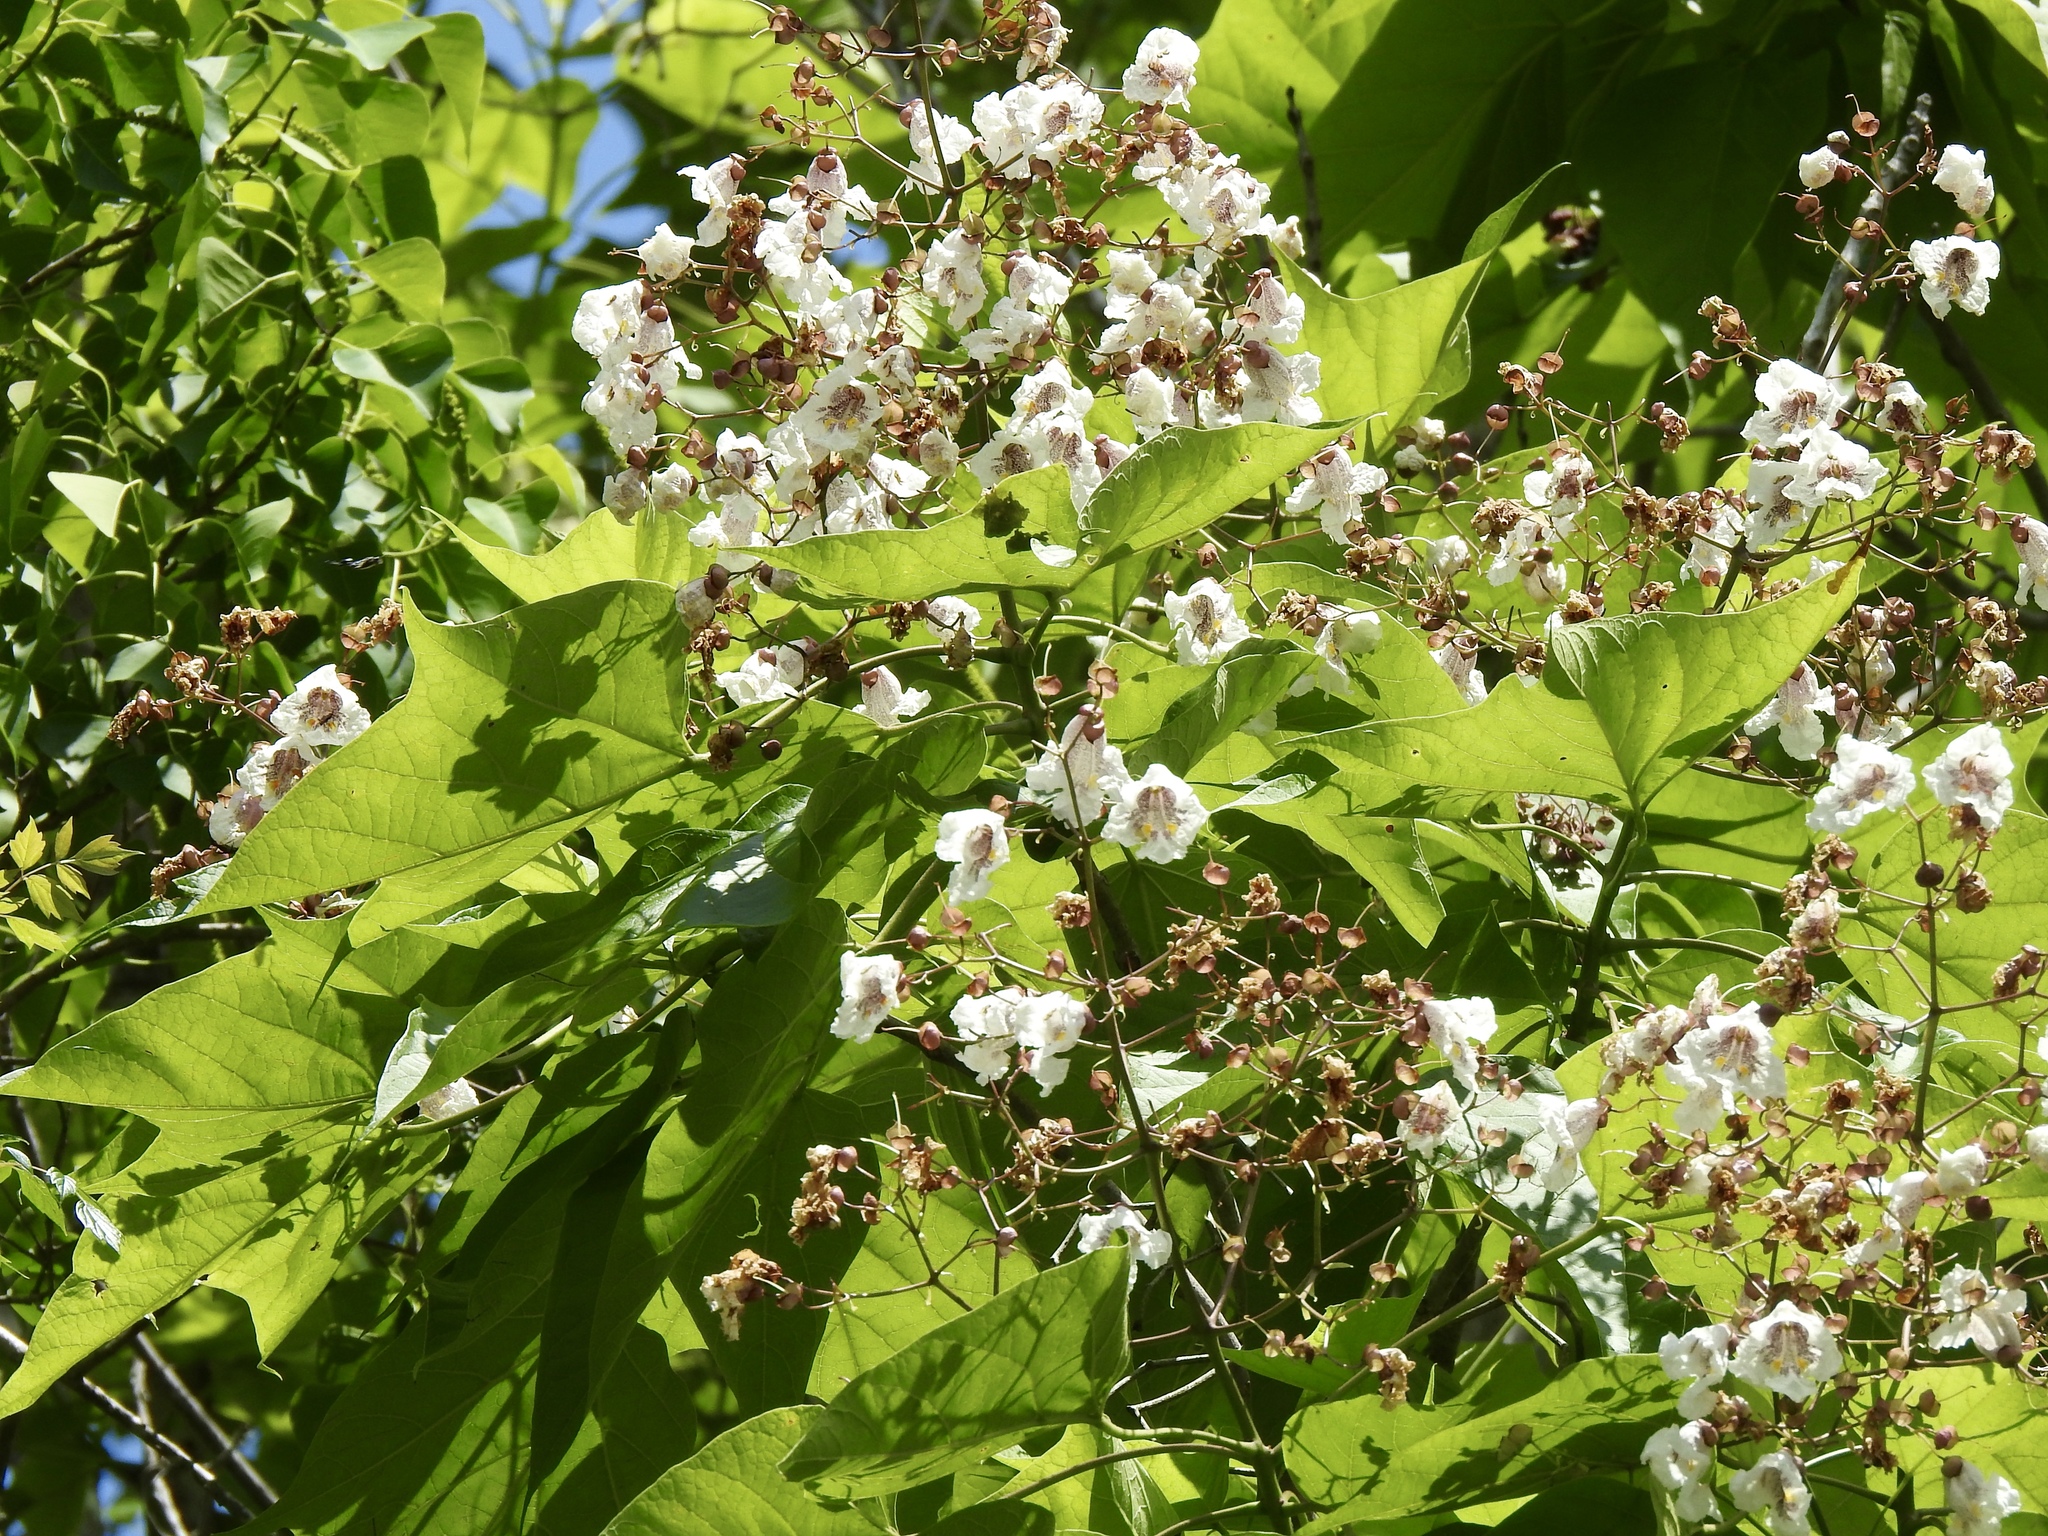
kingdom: Plantae
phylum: Tracheophyta
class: Magnoliopsida
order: Lamiales
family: Bignoniaceae
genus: Catalpa
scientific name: Catalpa bignonioides
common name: Southern catalpa
